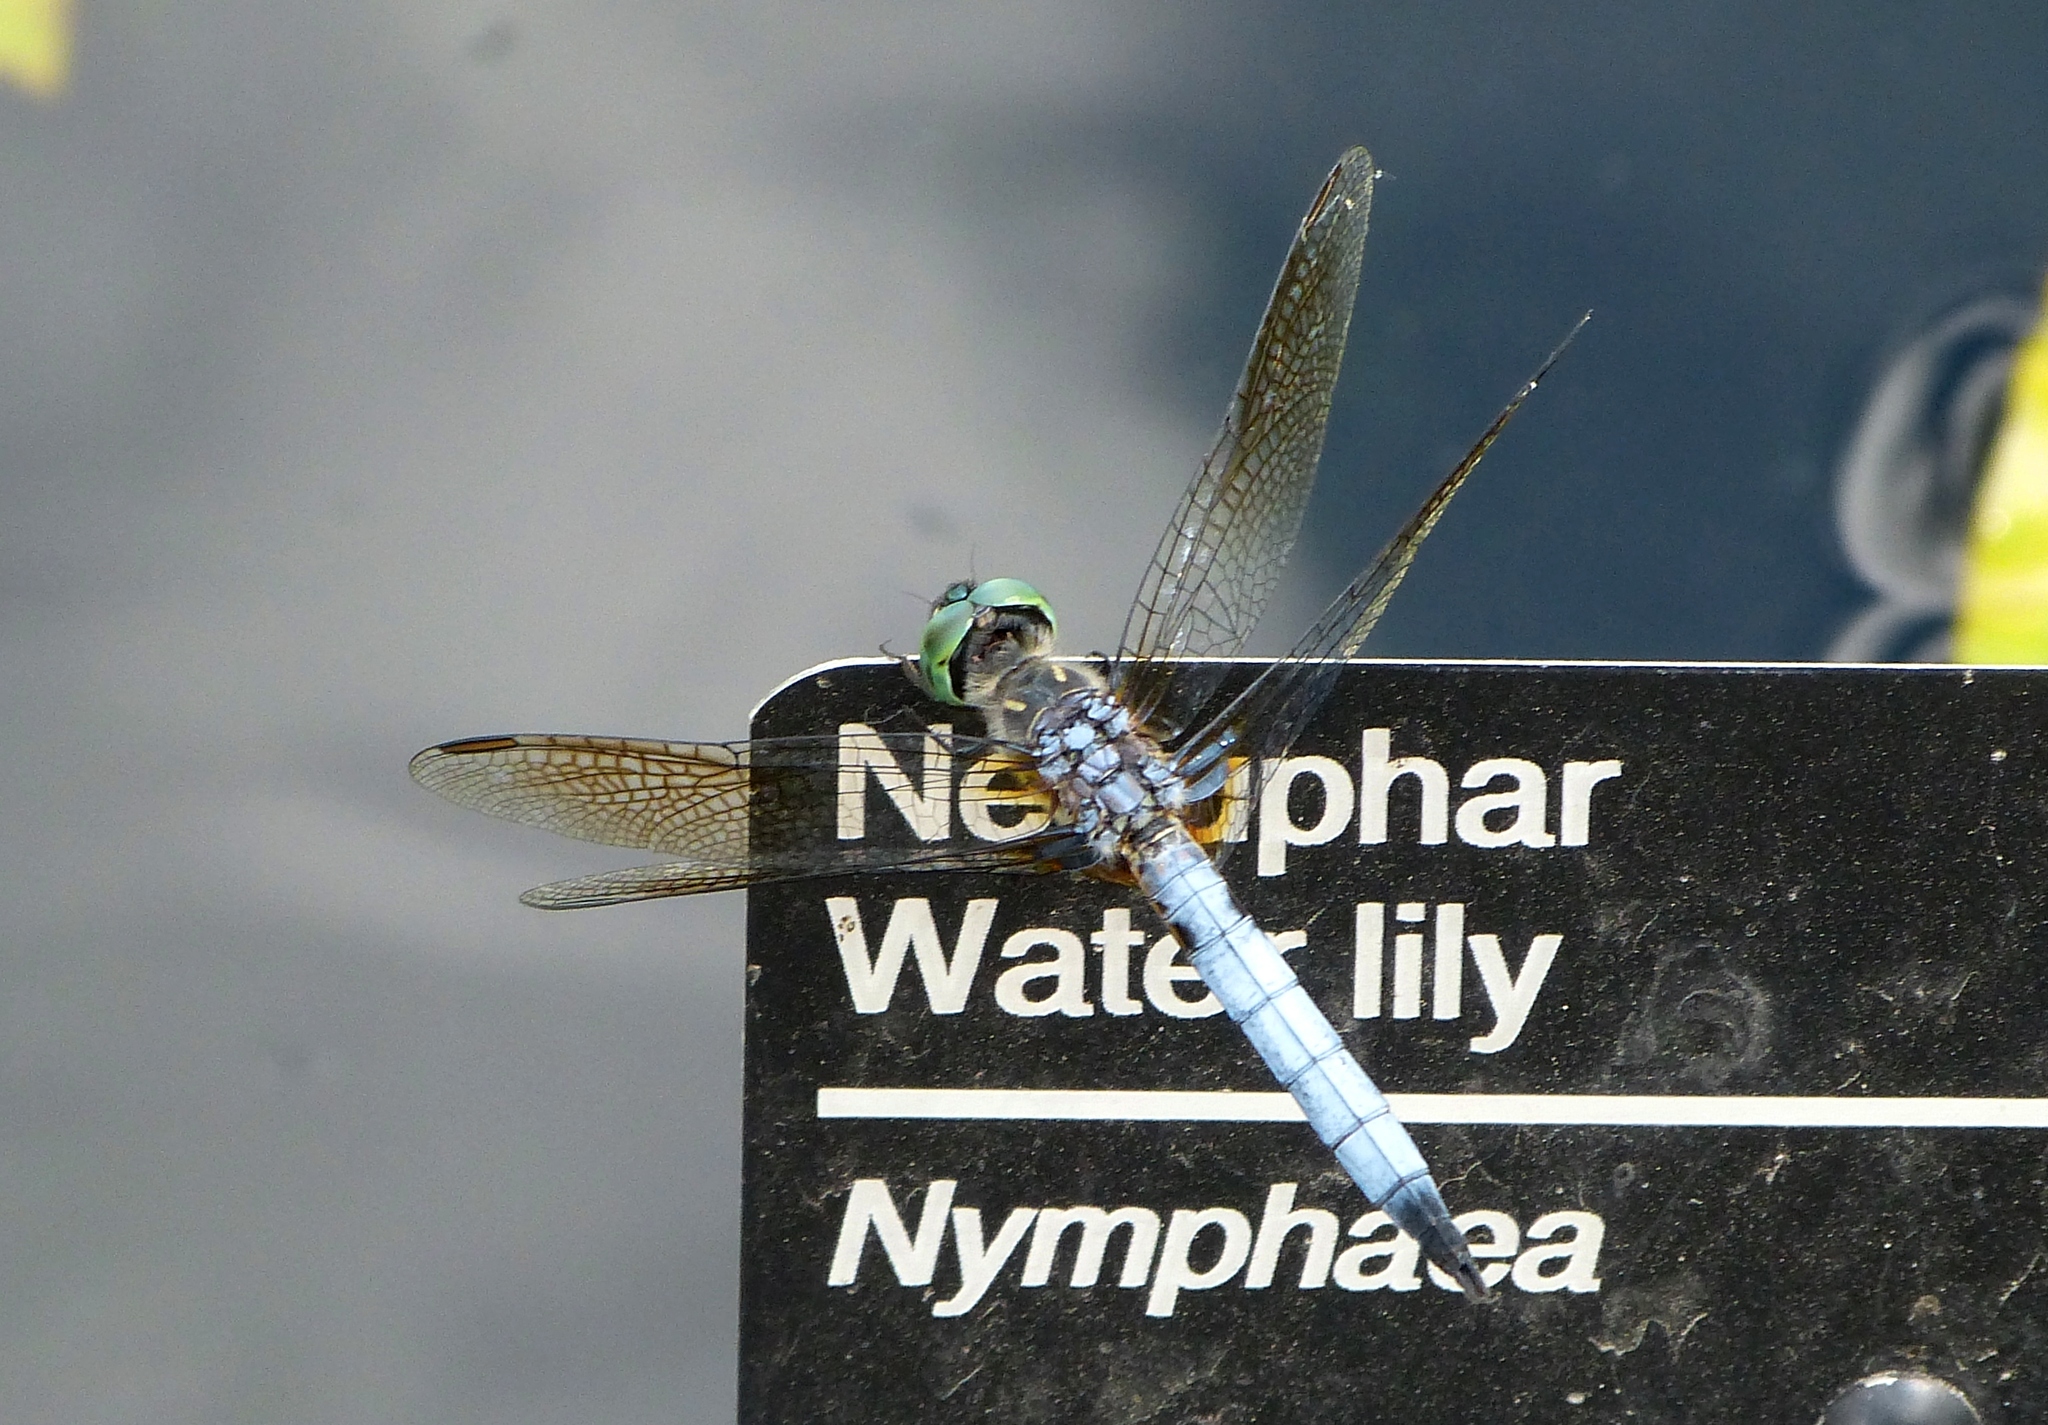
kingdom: Animalia
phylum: Arthropoda
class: Insecta
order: Odonata
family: Libellulidae
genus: Pachydiplax
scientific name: Pachydiplax longipennis
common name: Blue dasher
